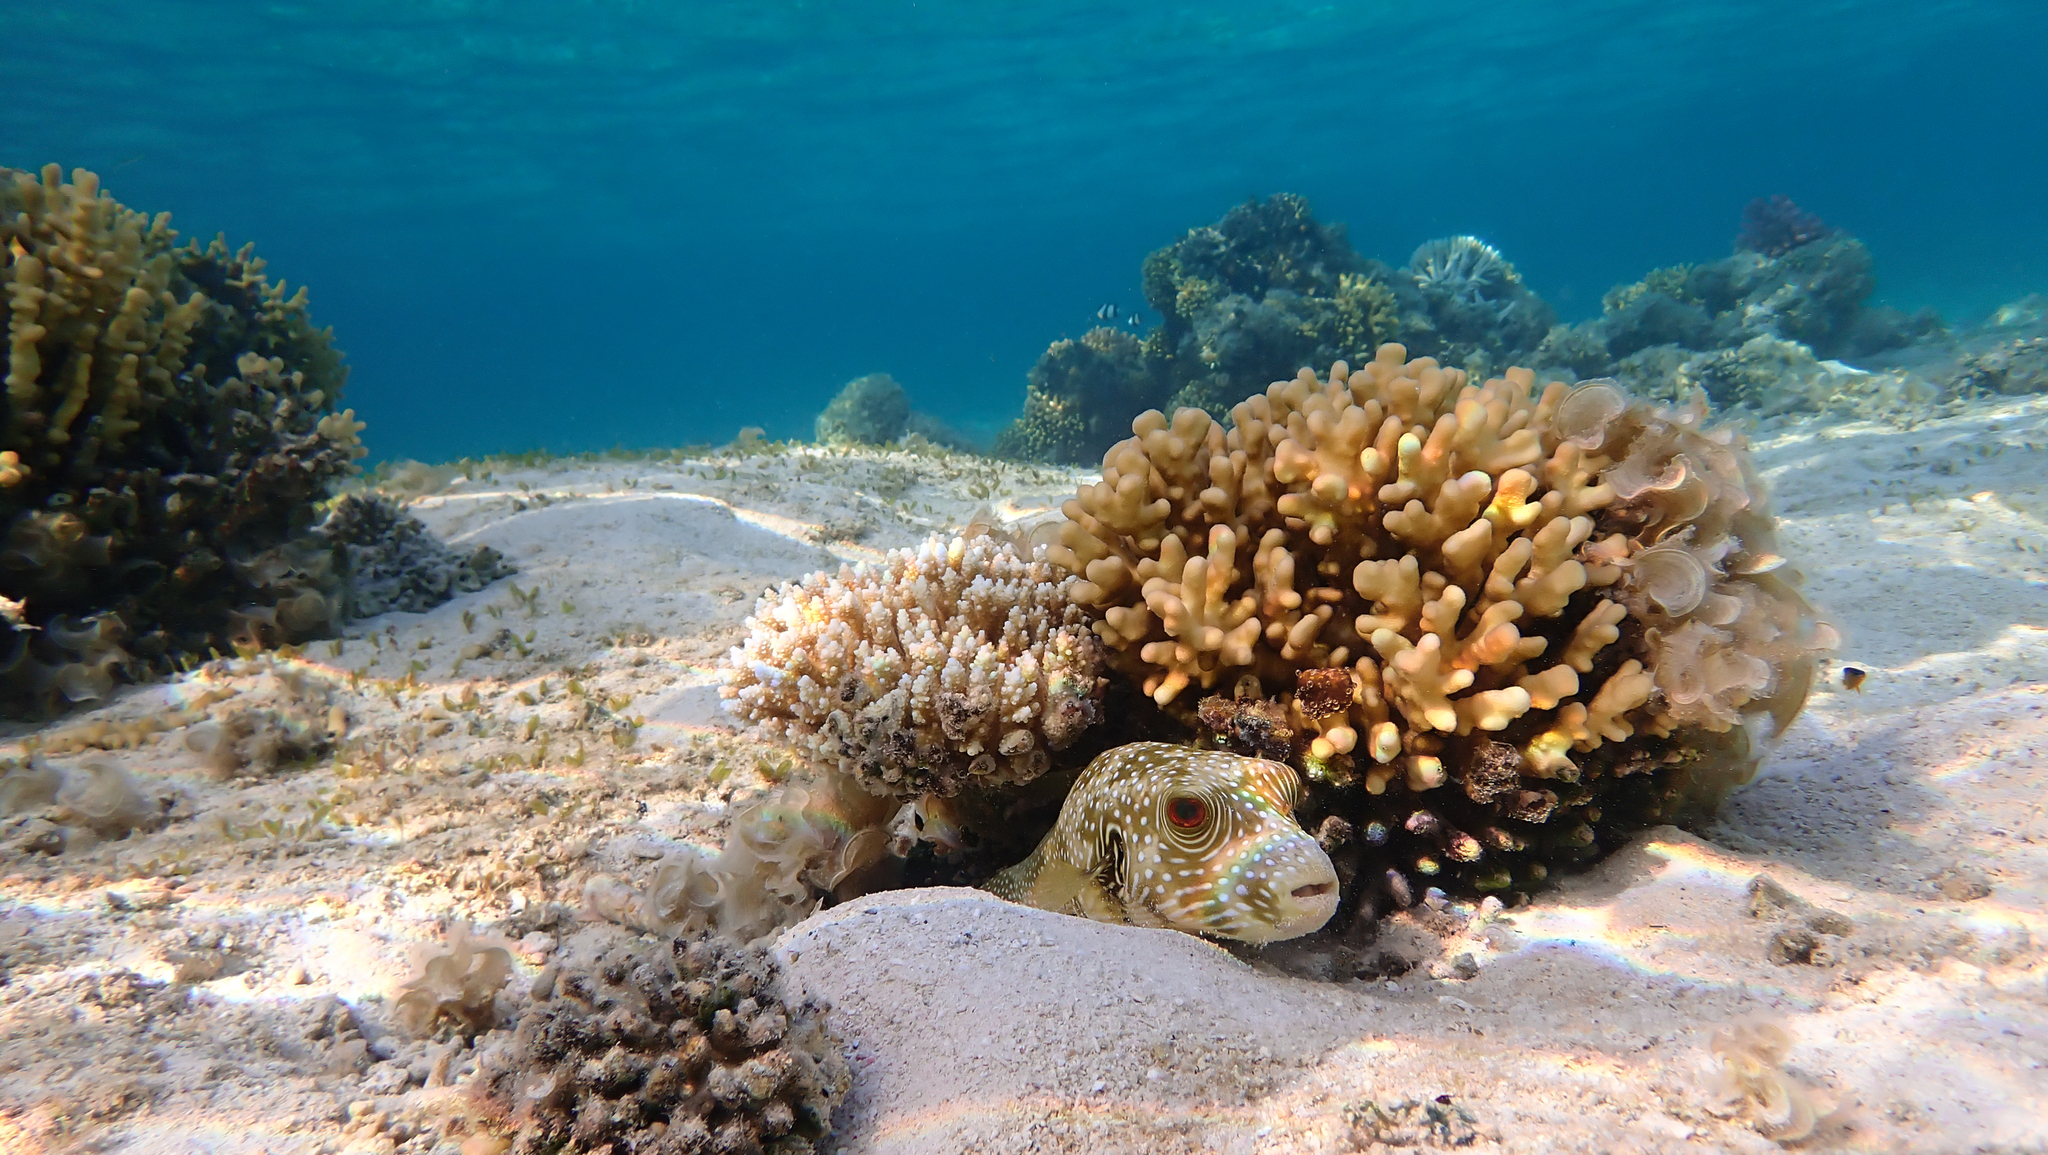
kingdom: Animalia
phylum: Chordata
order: Tetraodontiformes
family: Tetraodontidae
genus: Arothron
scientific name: Arothron hispidus
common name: Stripebelly puffer
